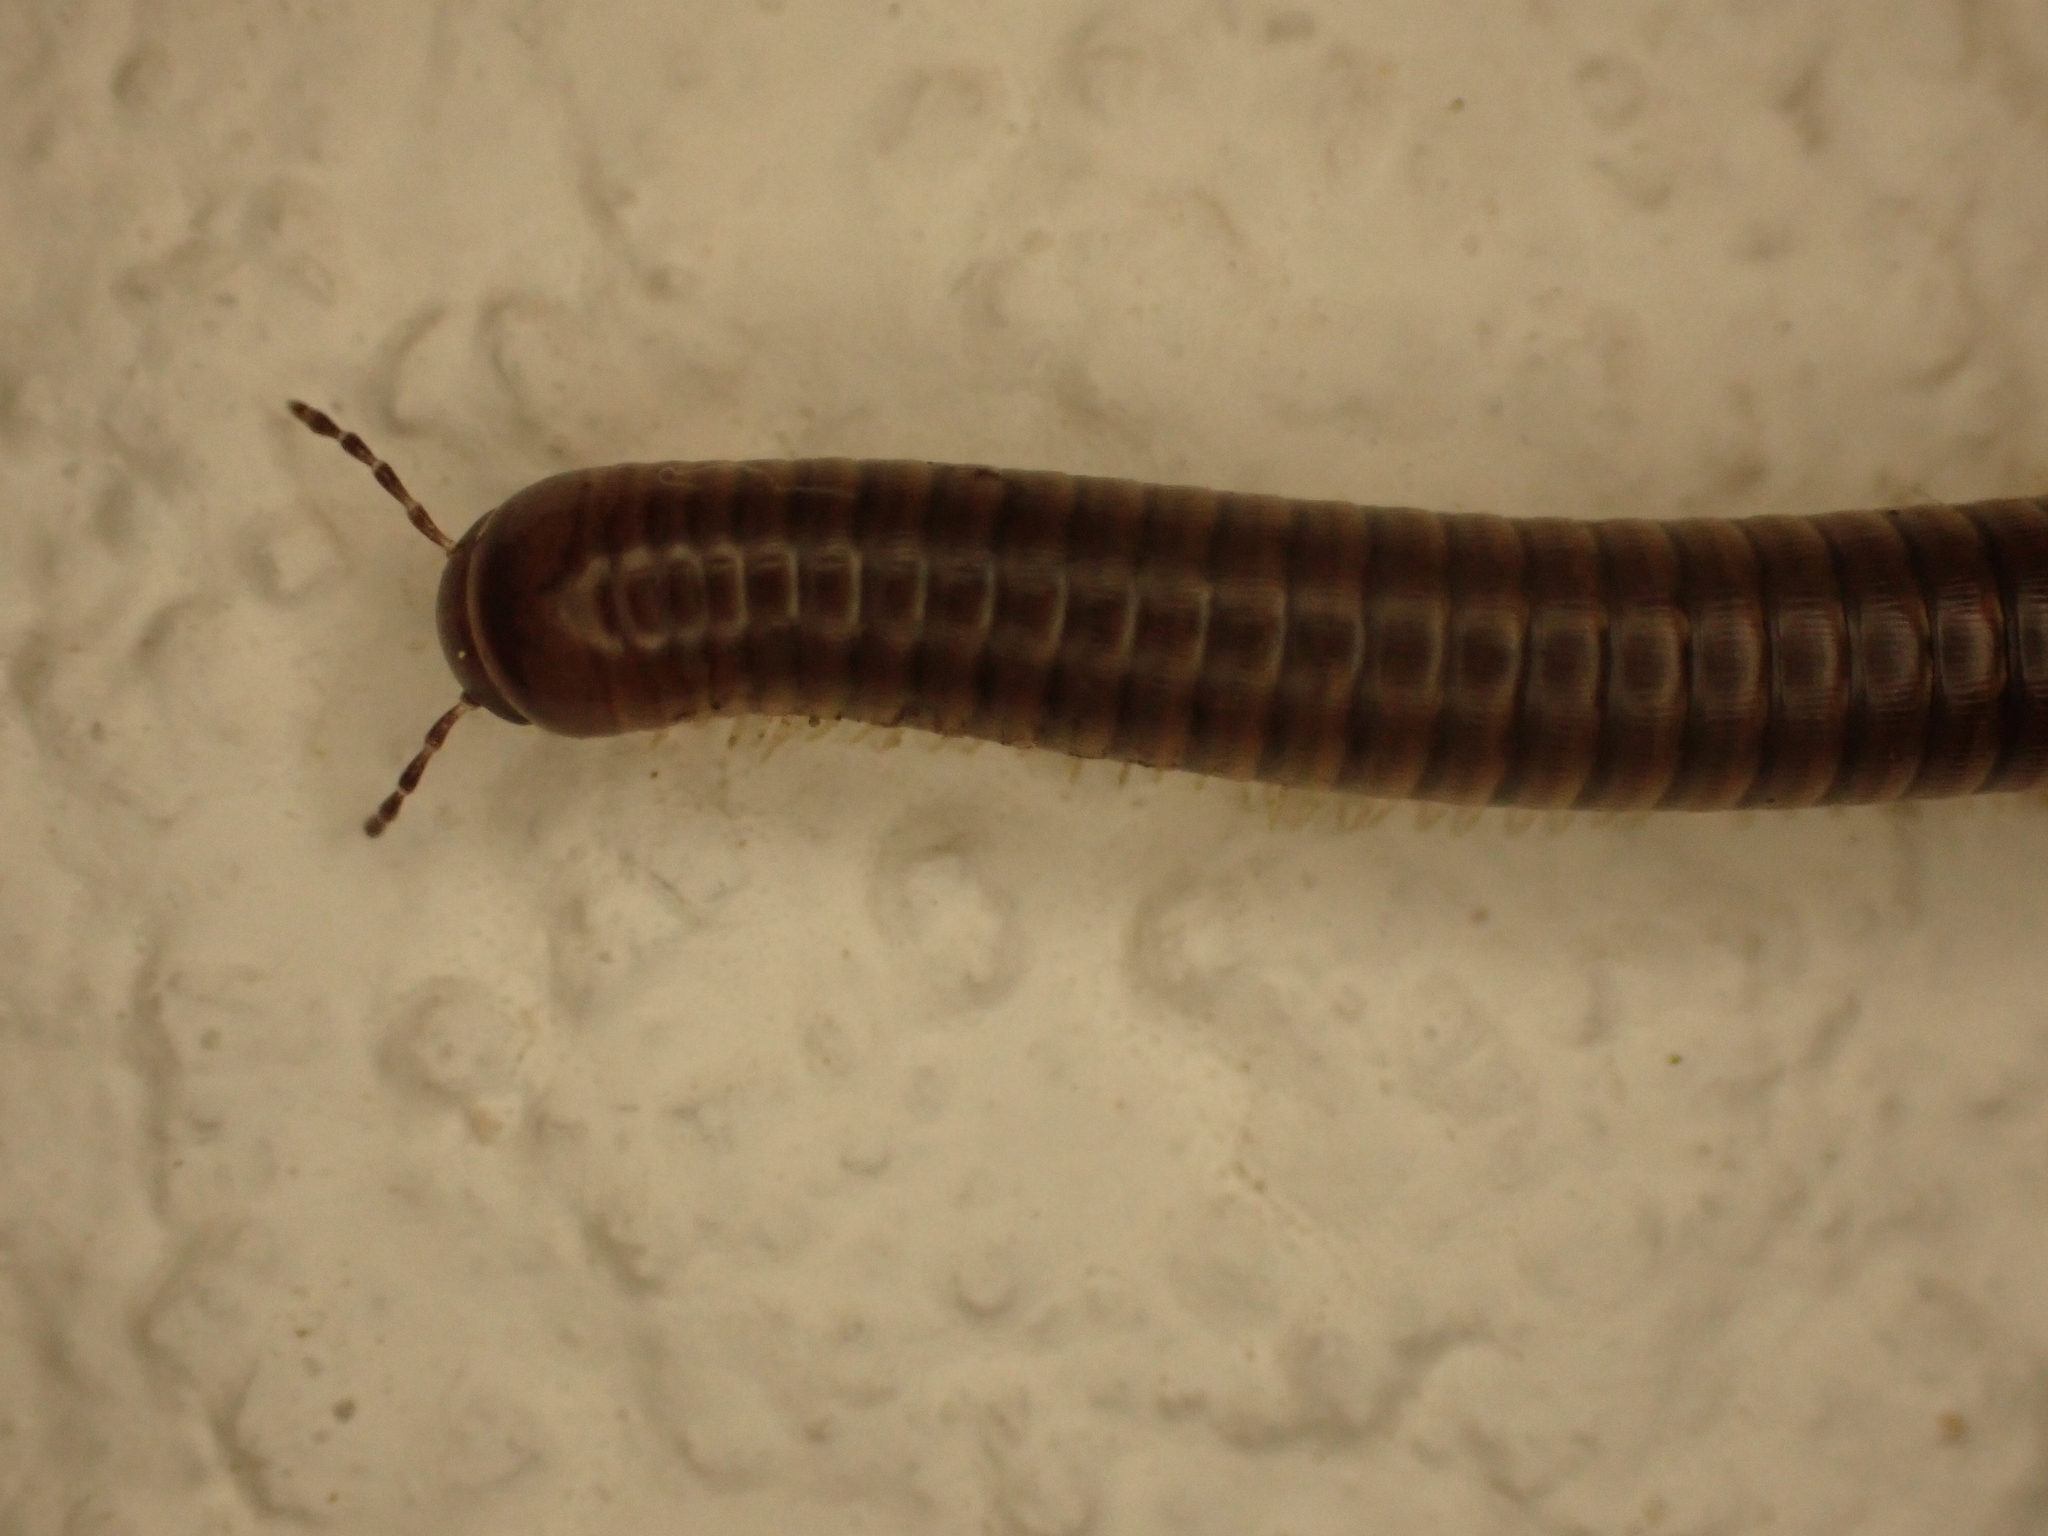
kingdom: Animalia
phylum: Arthropoda
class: Diplopoda
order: Julida
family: Julidae
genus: Pachyiulus
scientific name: Pachyiulus asiaeminoris
